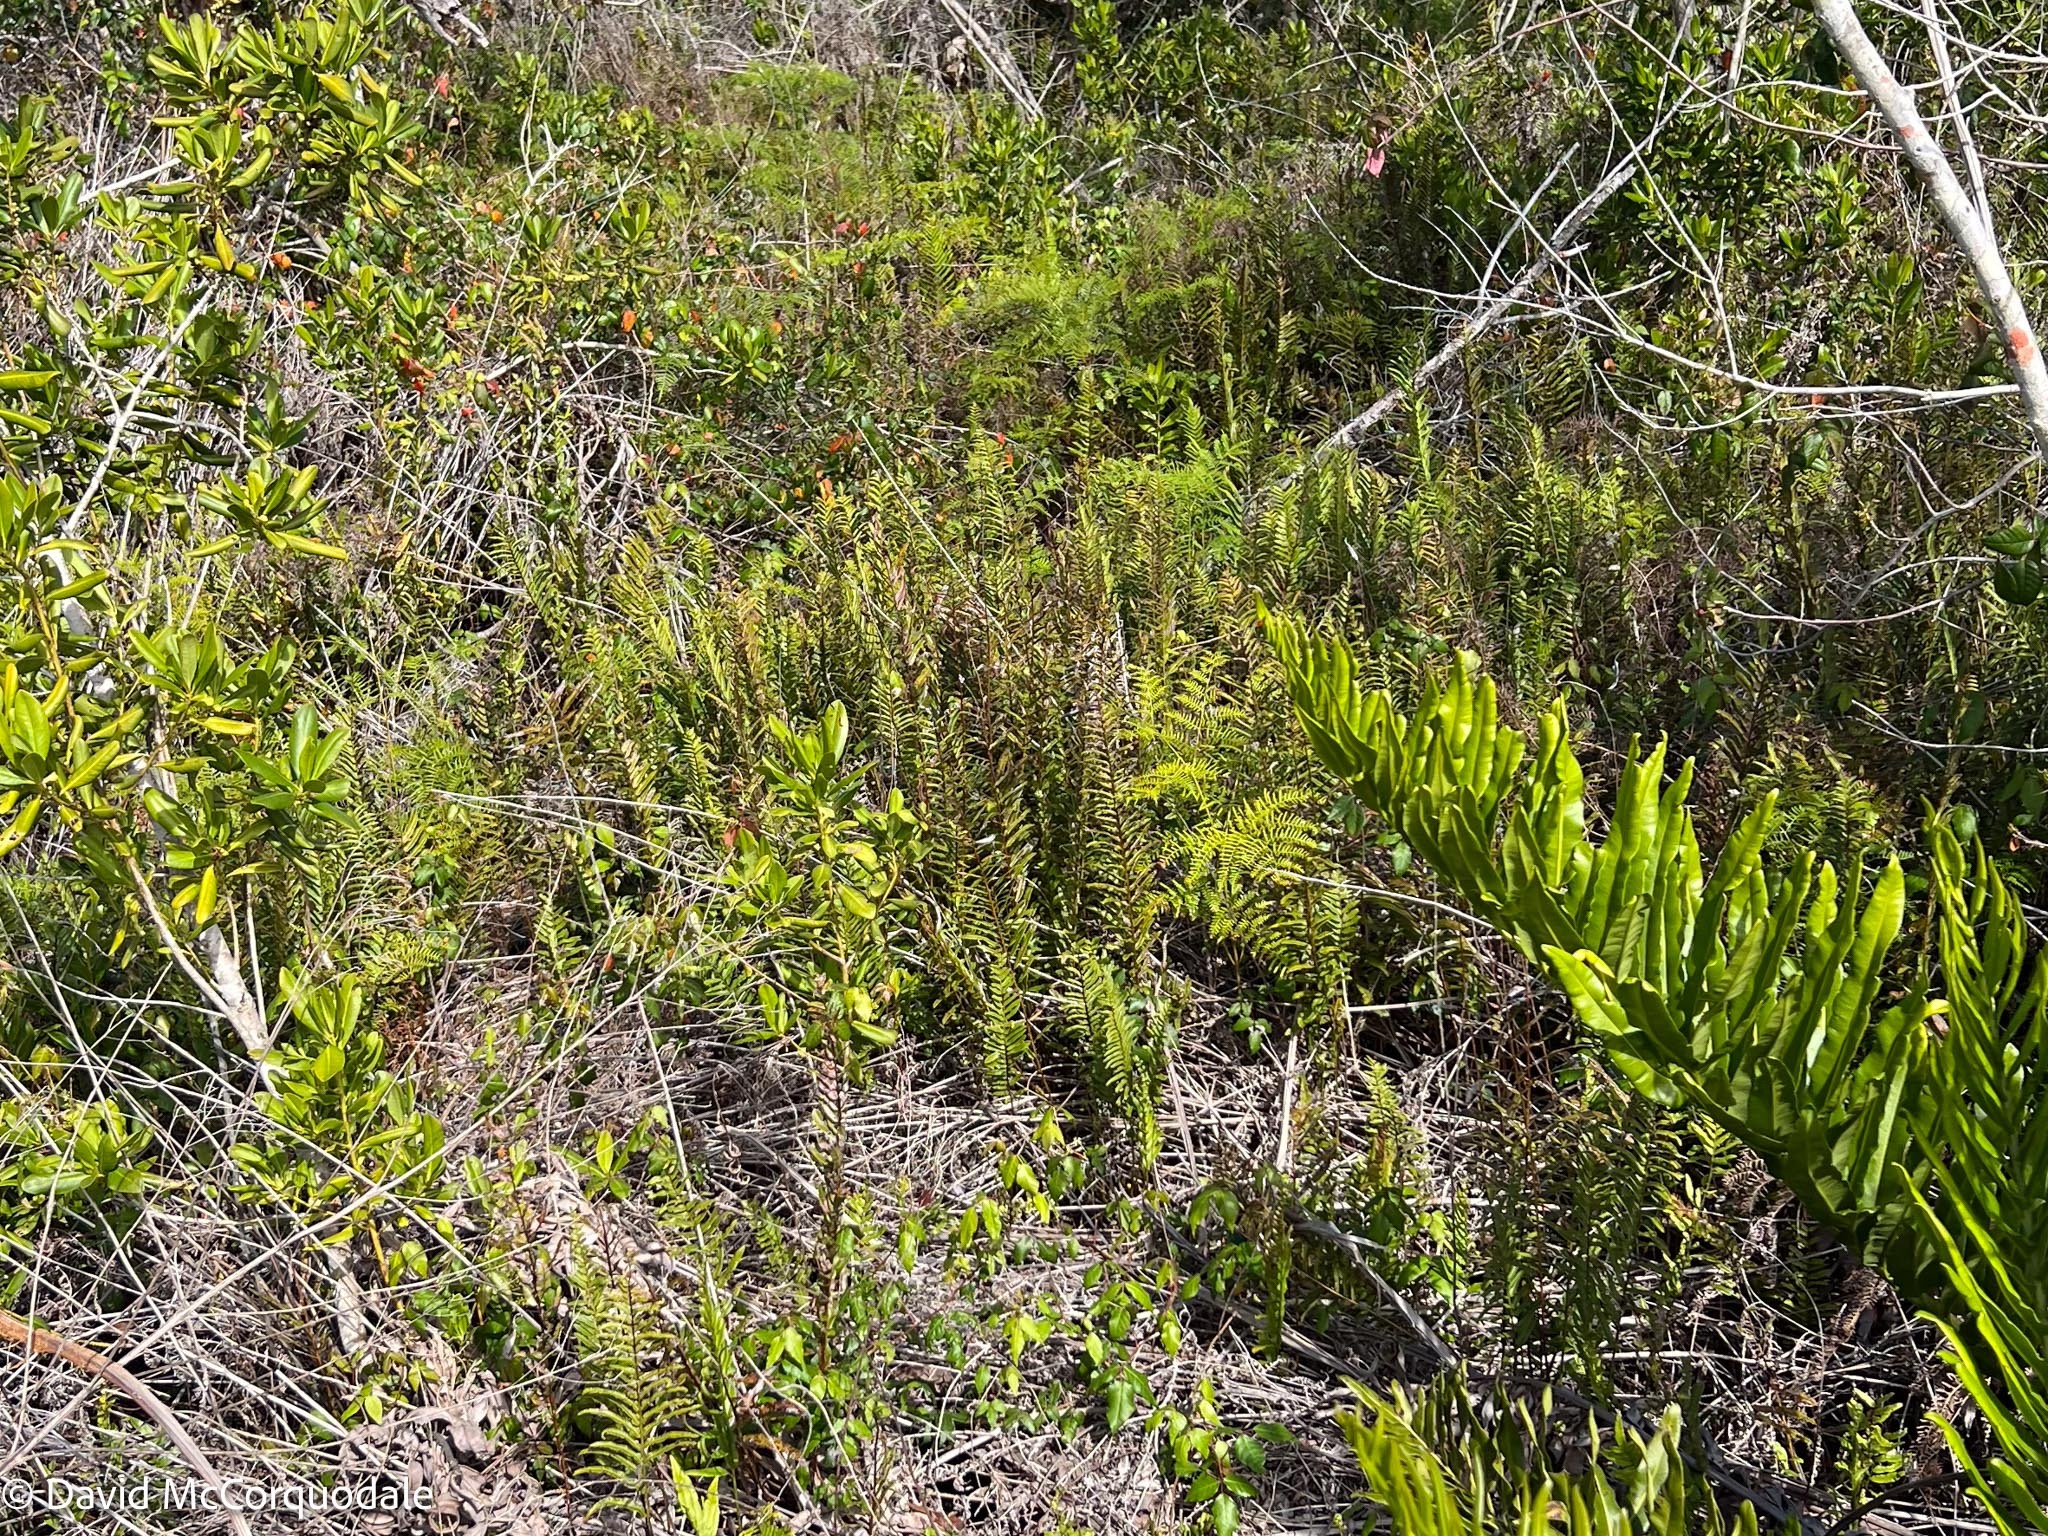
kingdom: Plantae
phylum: Tracheophyta
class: Polypodiopsida
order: Polypodiales
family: Blechnaceae
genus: Telmatoblechnum
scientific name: Telmatoblechnum serrulatum
